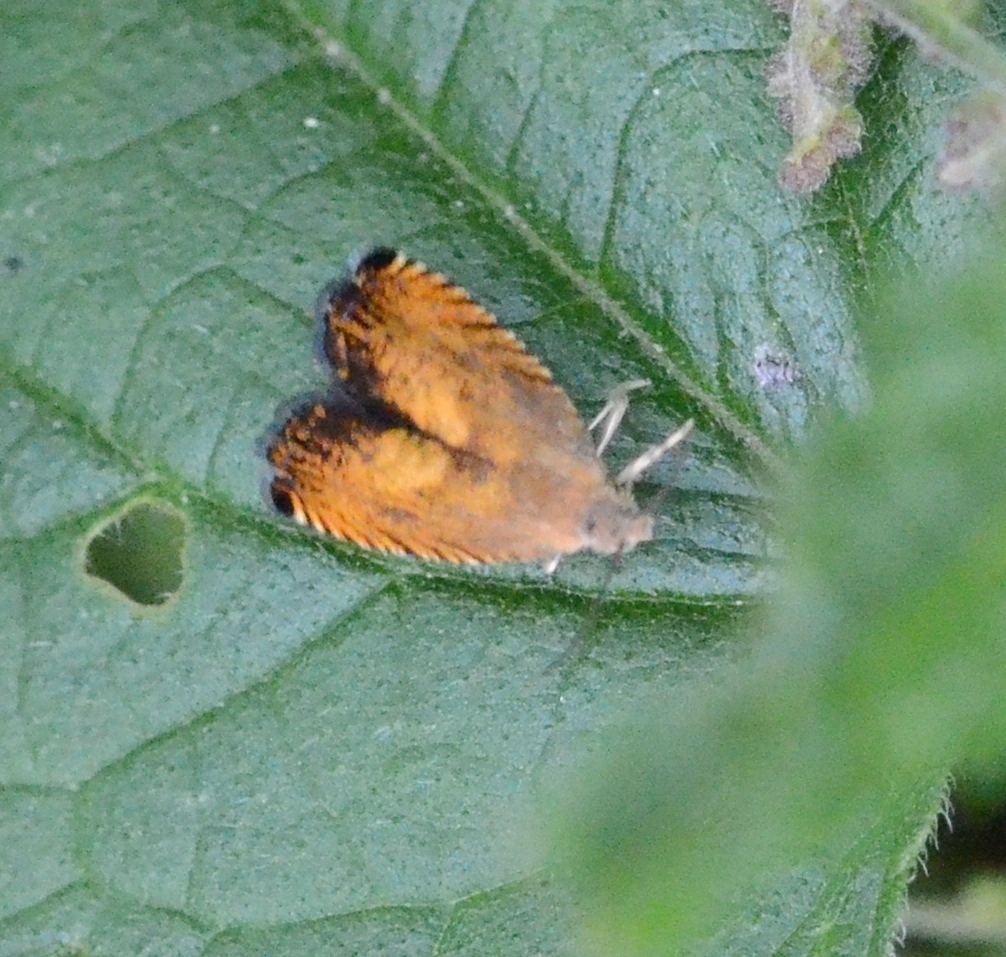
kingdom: Animalia
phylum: Arthropoda
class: Insecta
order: Lepidoptera
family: Tortricidae
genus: Pammene
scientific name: Pammene aurita
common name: Sycamore piercer
